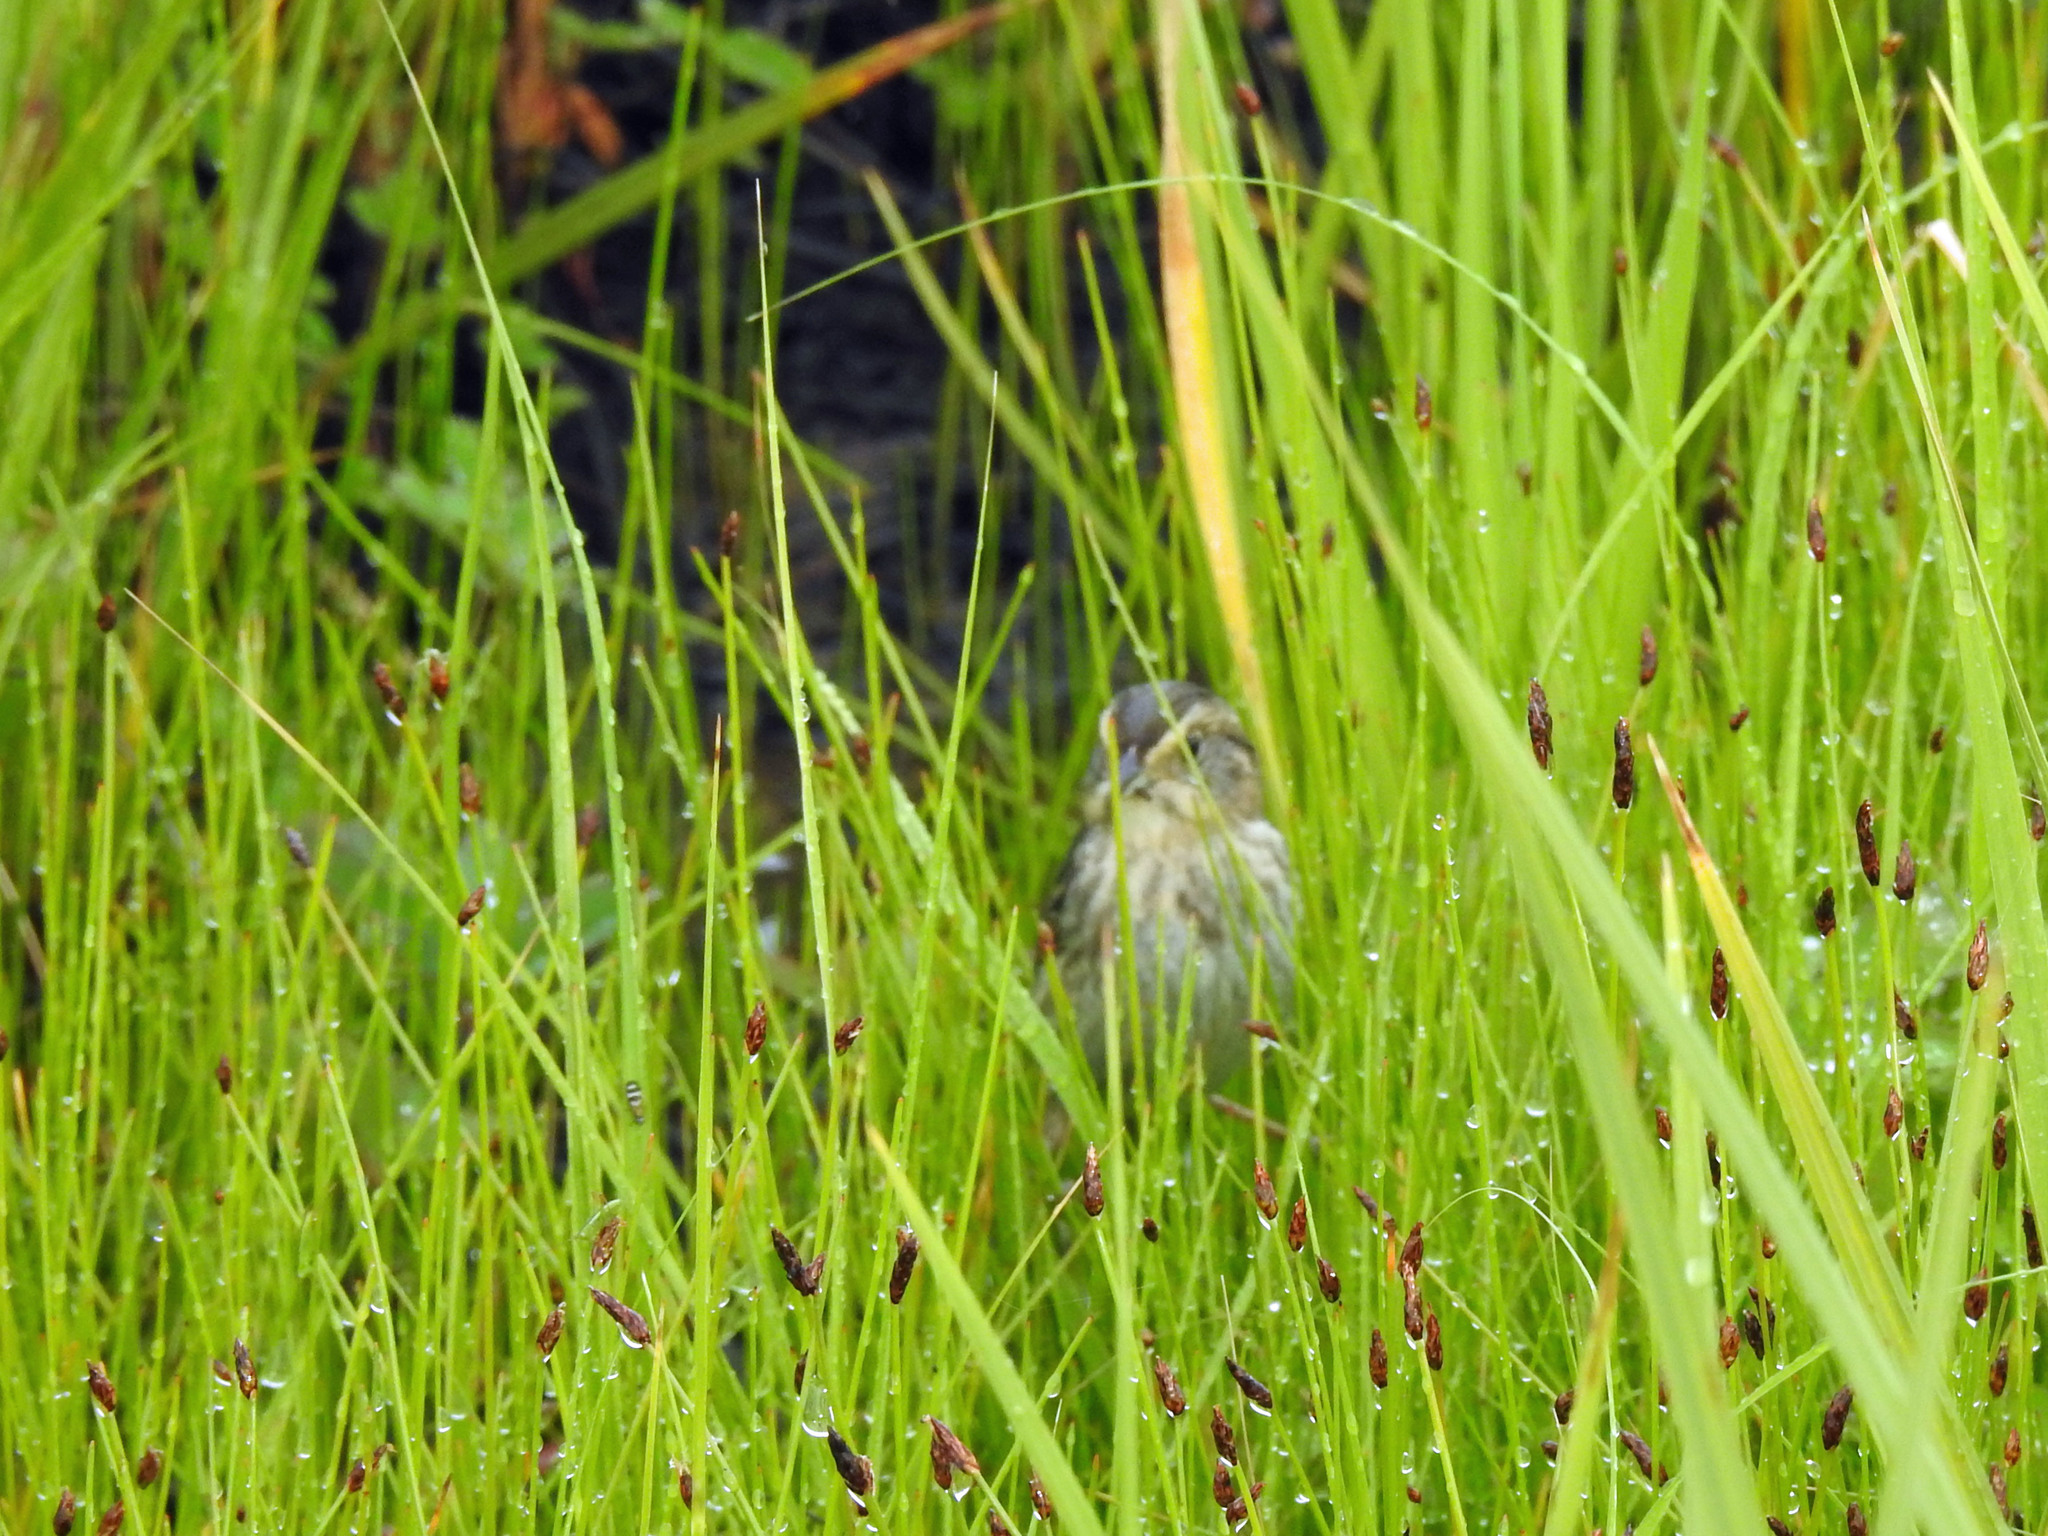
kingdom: Animalia
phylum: Chordata
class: Aves
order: Passeriformes
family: Passerellidae
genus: Ammospiza
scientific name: Ammospiza nelsoni
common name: Nelson's sparrow
